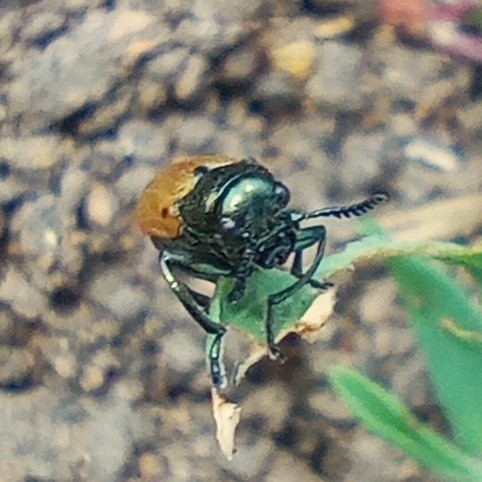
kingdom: Animalia
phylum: Arthropoda
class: Insecta
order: Coleoptera
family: Chrysomelidae
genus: Labidostomis
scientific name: Labidostomis longimana
